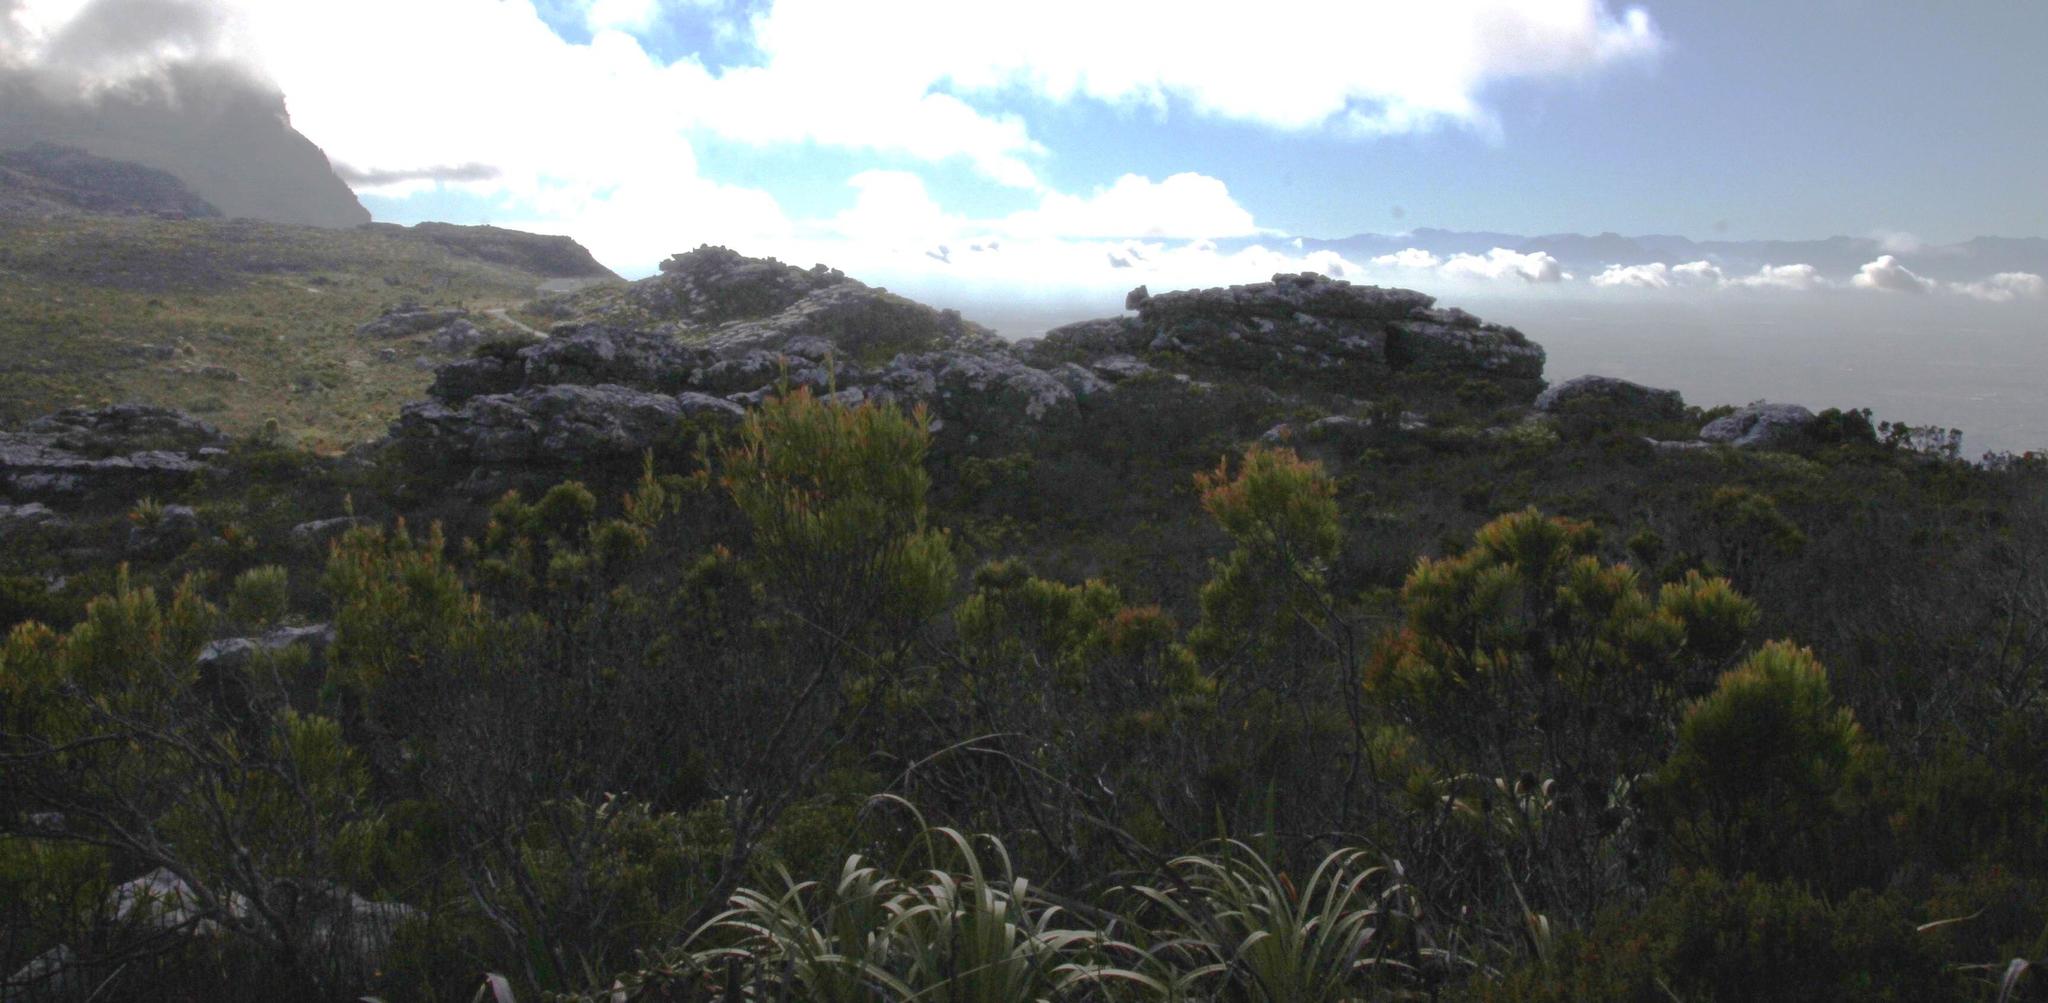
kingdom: Plantae
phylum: Tracheophyta
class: Magnoliopsida
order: Proteales
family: Proteaceae
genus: Leucadendron
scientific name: Leucadendron xanthoconus
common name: Sickle-leaf conebush
